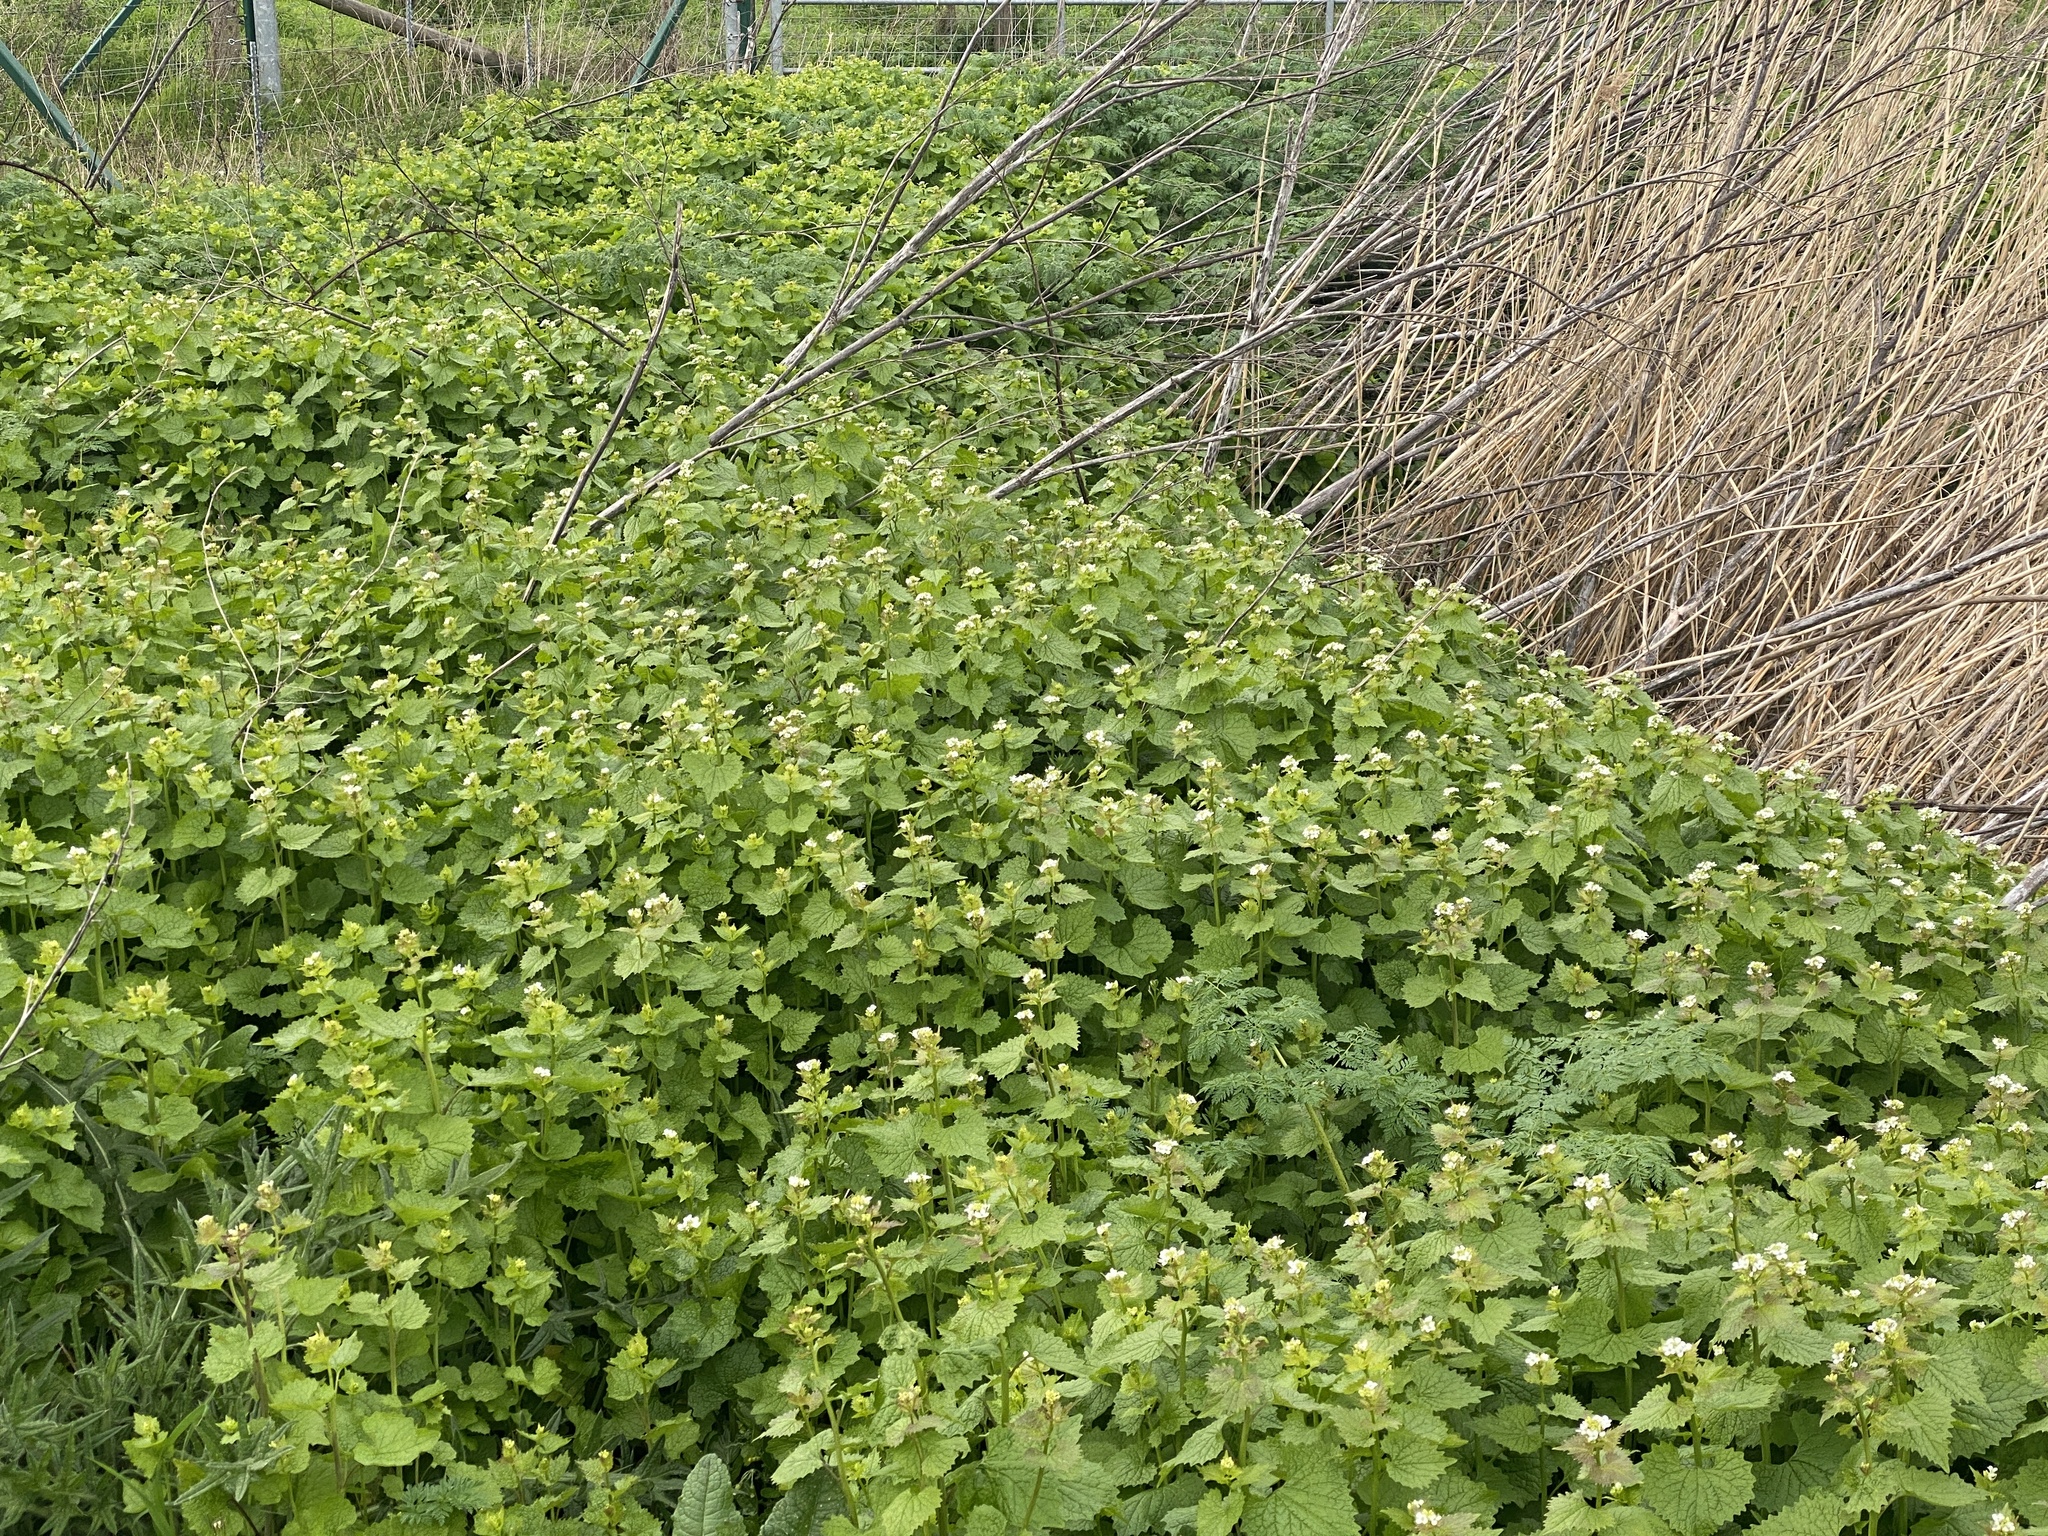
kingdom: Plantae
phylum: Tracheophyta
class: Magnoliopsida
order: Brassicales
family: Brassicaceae
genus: Alliaria
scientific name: Alliaria petiolata
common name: Garlic mustard
